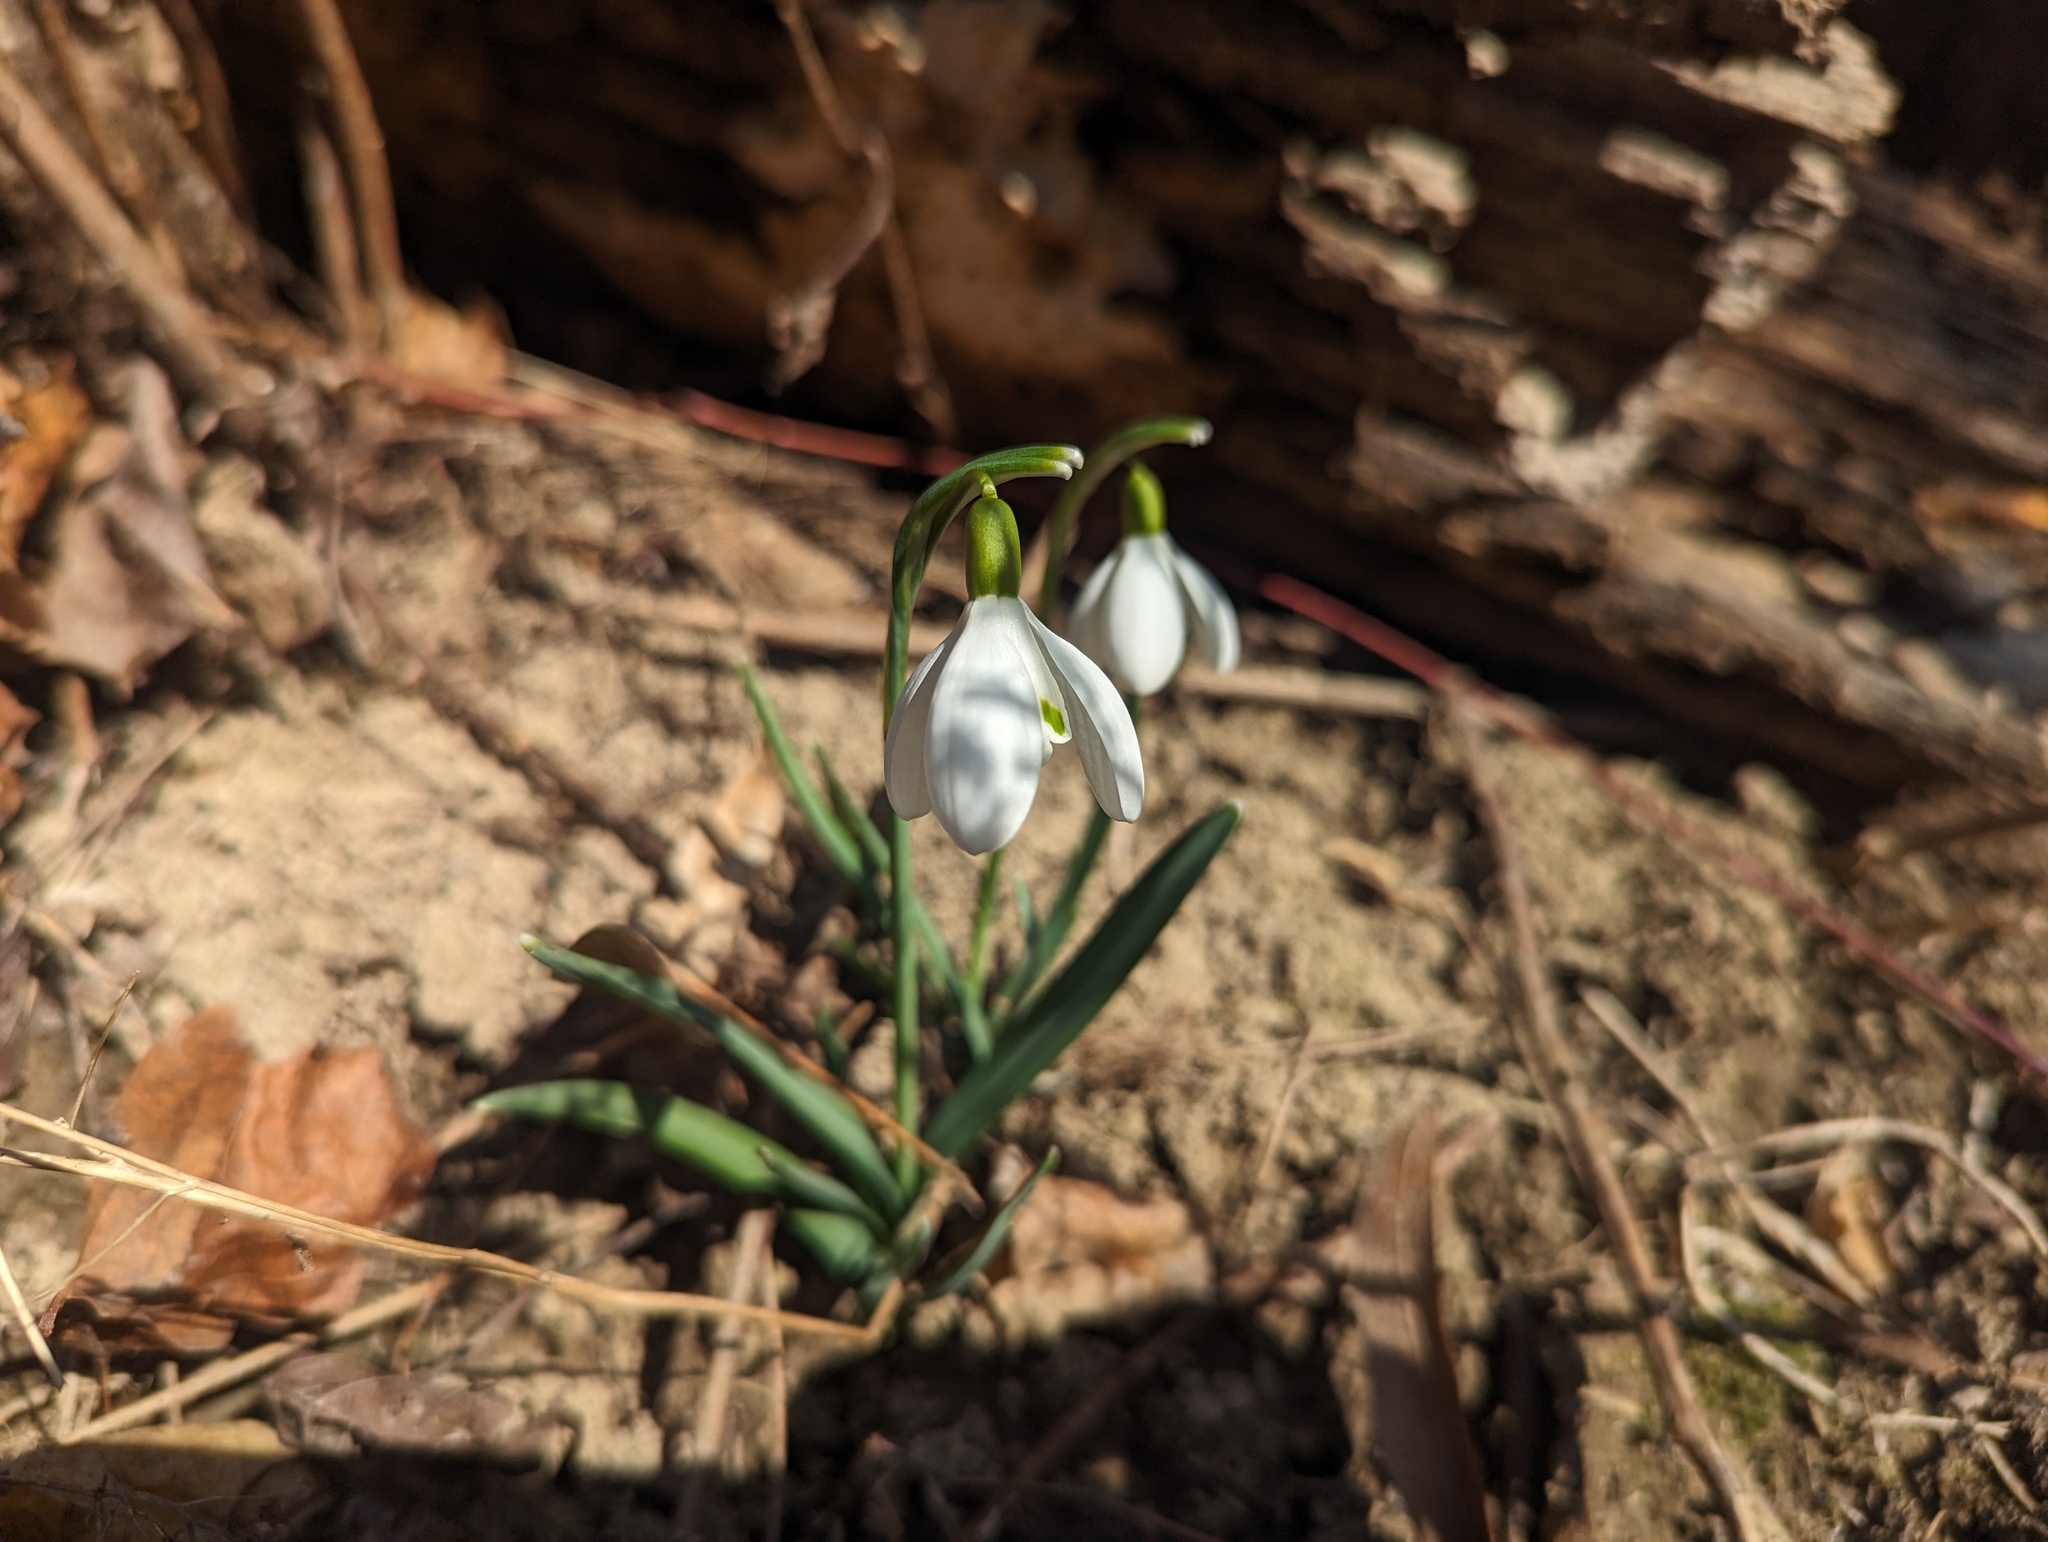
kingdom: Plantae
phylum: Tracheophyta
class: Liliopsida
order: Asparagales
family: Amaryllidaceae
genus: Galanthus
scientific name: Galanthus nivalis
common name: Snowdrop
